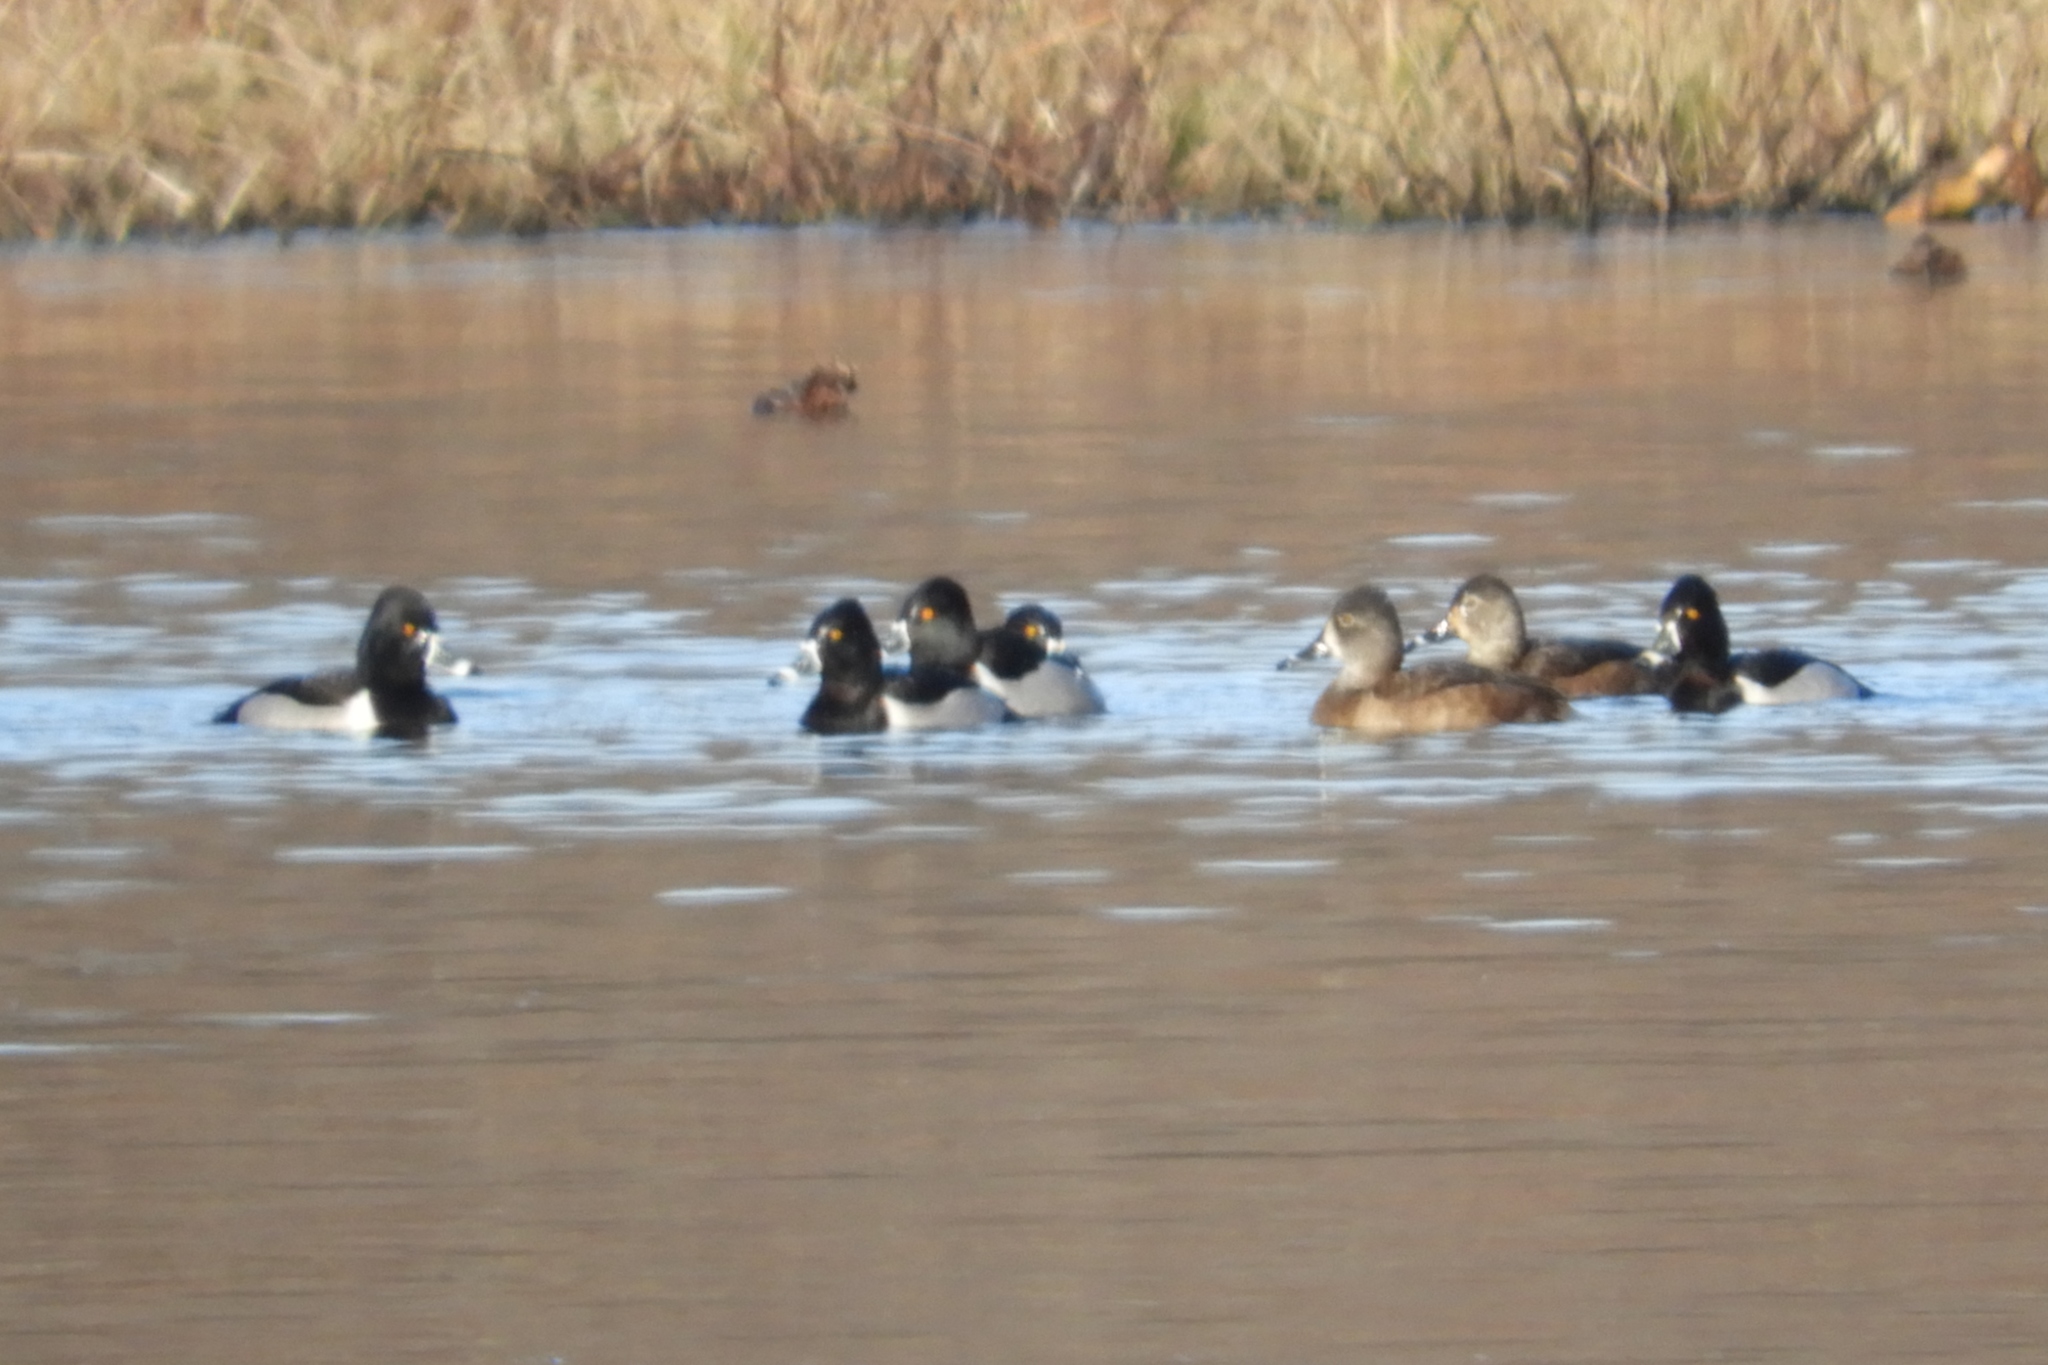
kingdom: Animalia
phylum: Chordata
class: Aves
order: Anseriformes
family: Anatidae
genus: Aythya
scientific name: Aythya collaris
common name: Ring-necked duck
